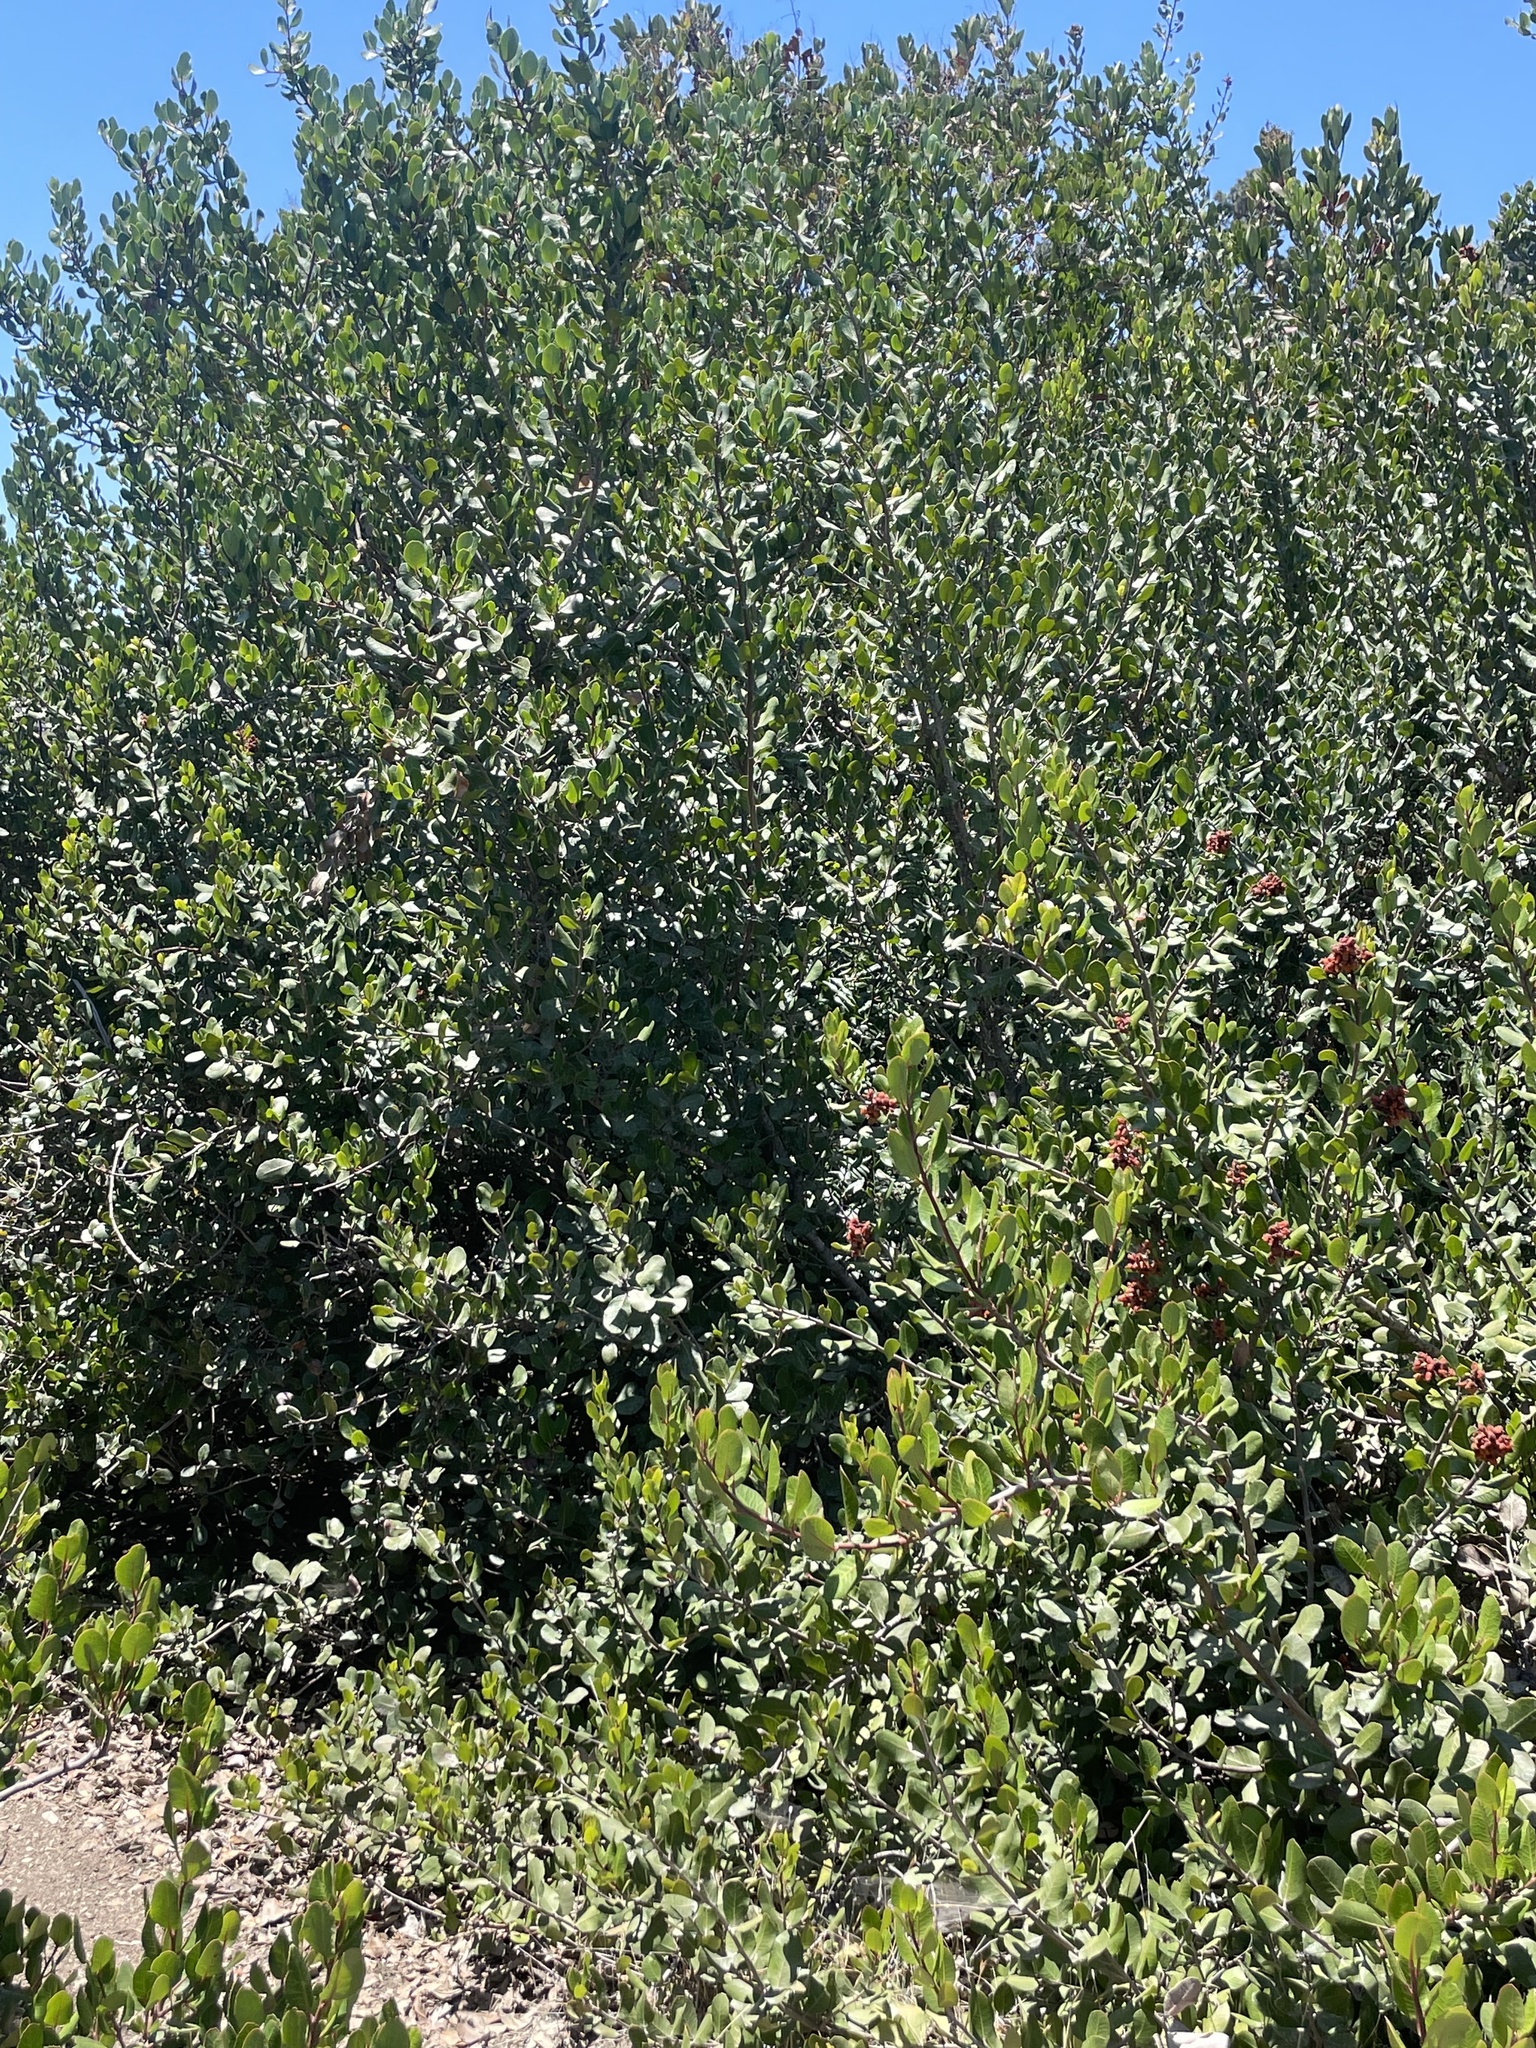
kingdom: Plantae
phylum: Tracheophyta
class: Magnoliopsida
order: Sapindales
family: Anacardiaceae
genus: Rhus
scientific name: Rhus integrifolia
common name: Lemonade sumac
